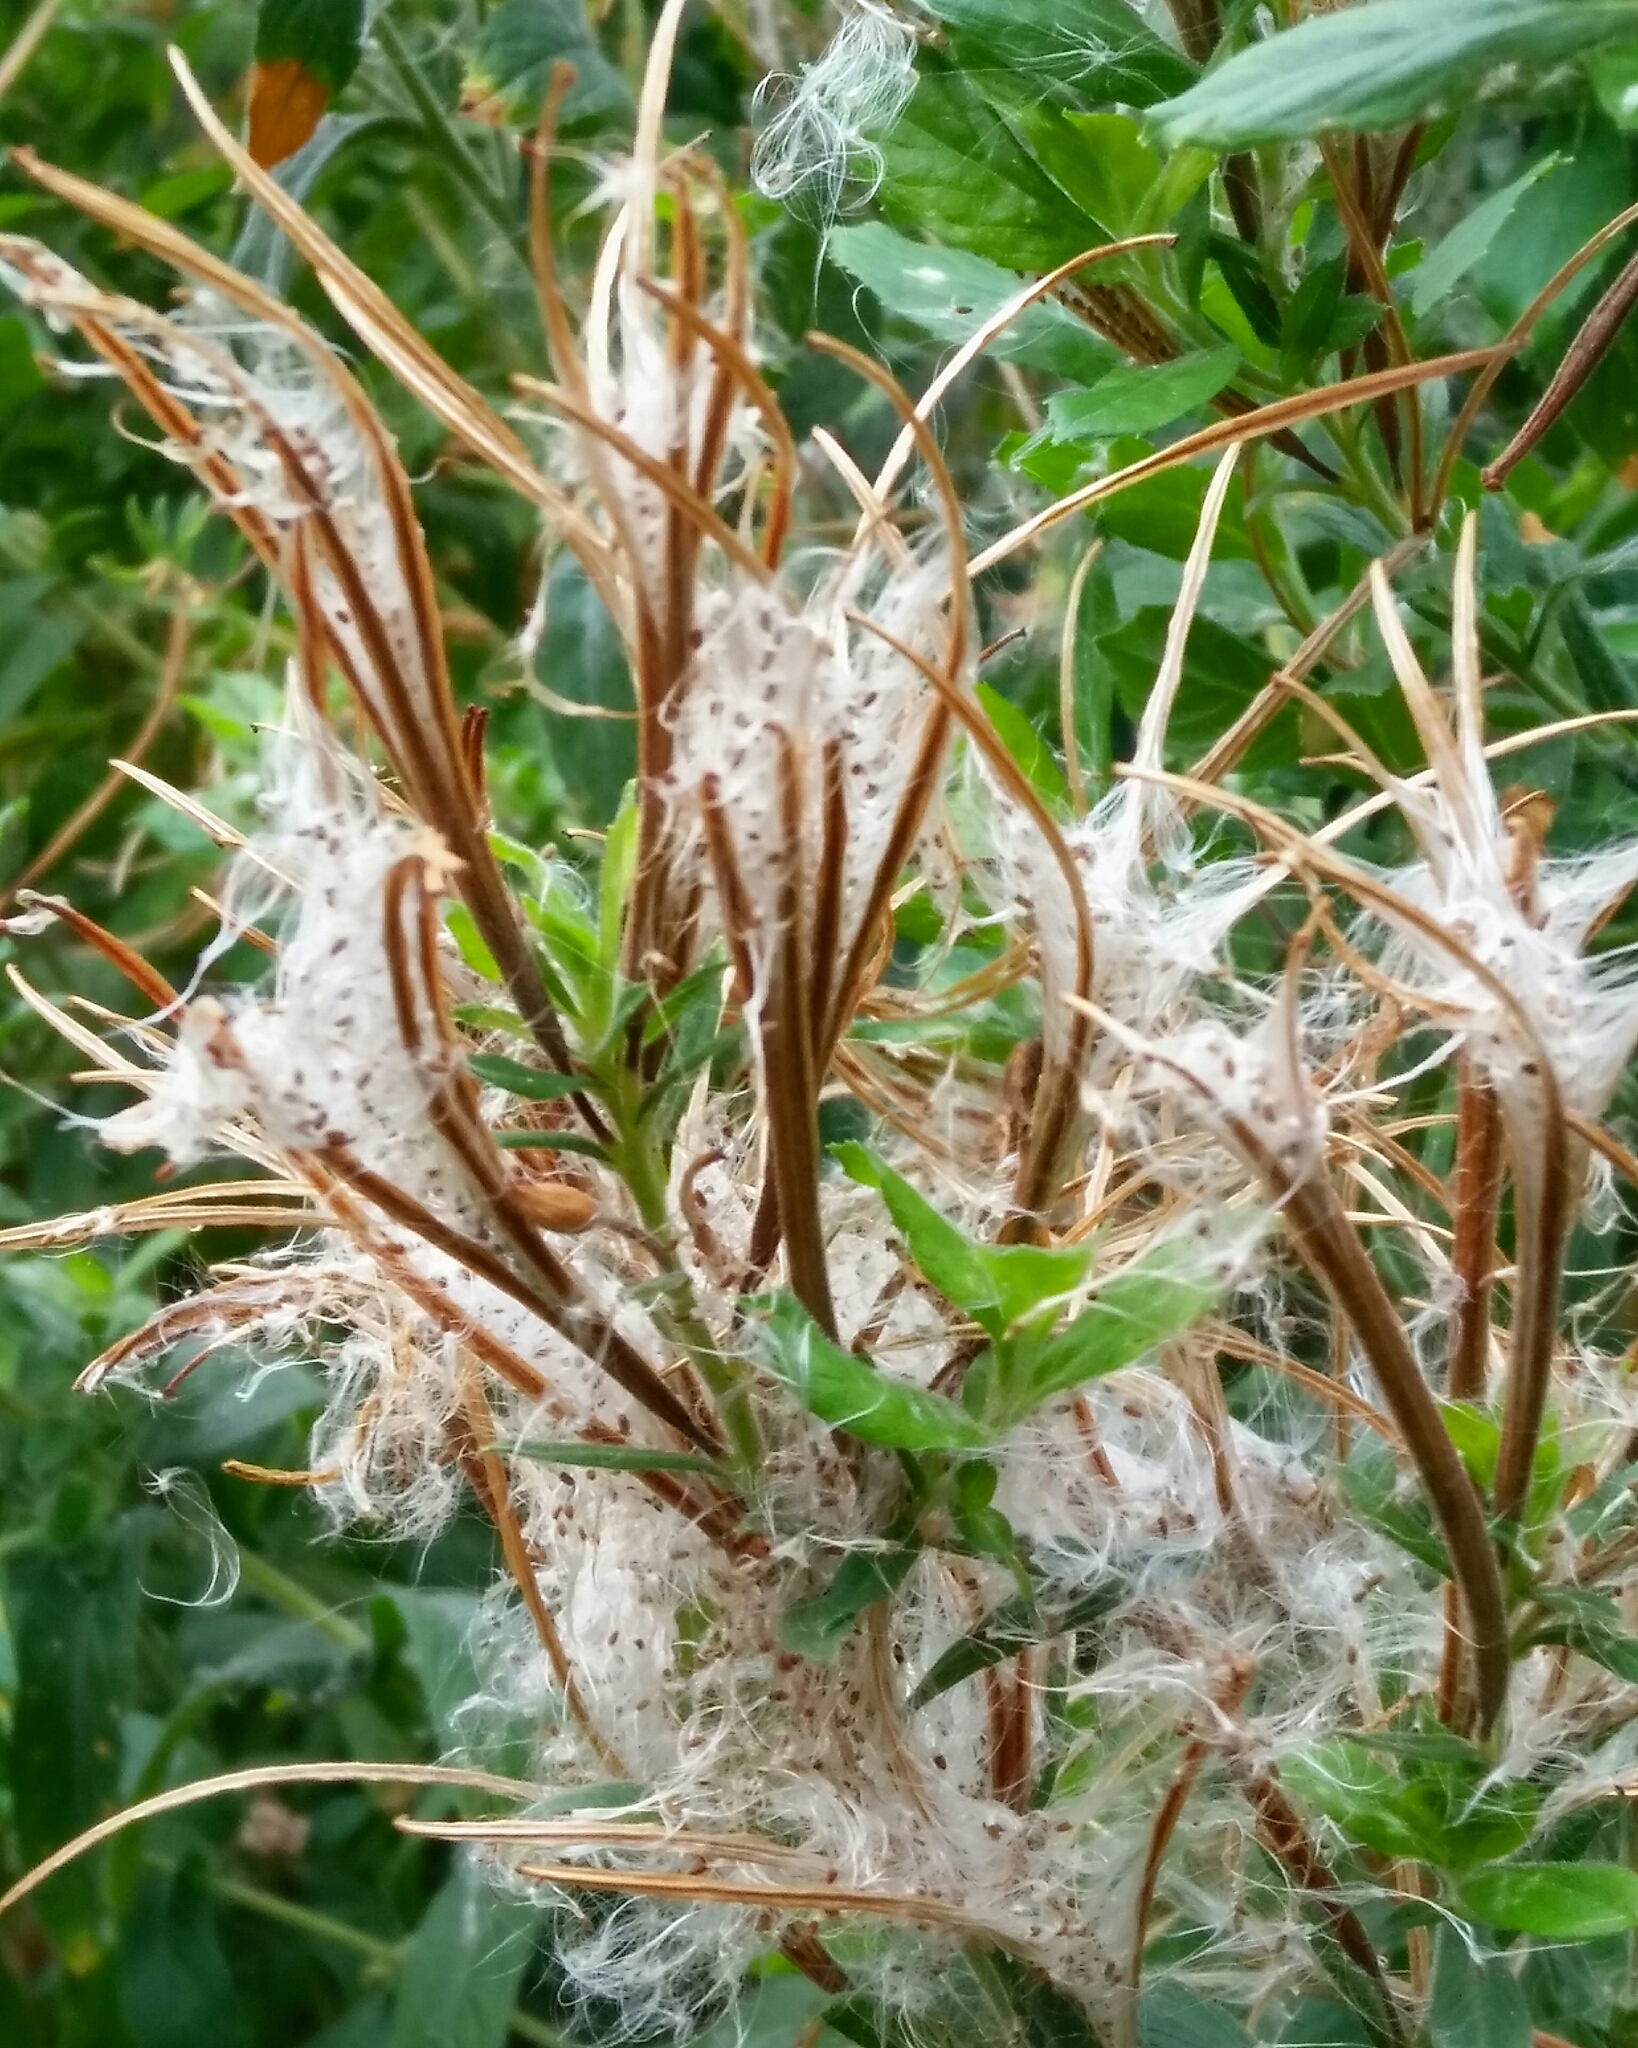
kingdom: Plantae
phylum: Tracheophyta
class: Magnoliopsida
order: Myrtales
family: Onagraceae
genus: Epilobium
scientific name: Epilobium hirsutum
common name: Great willowherb
